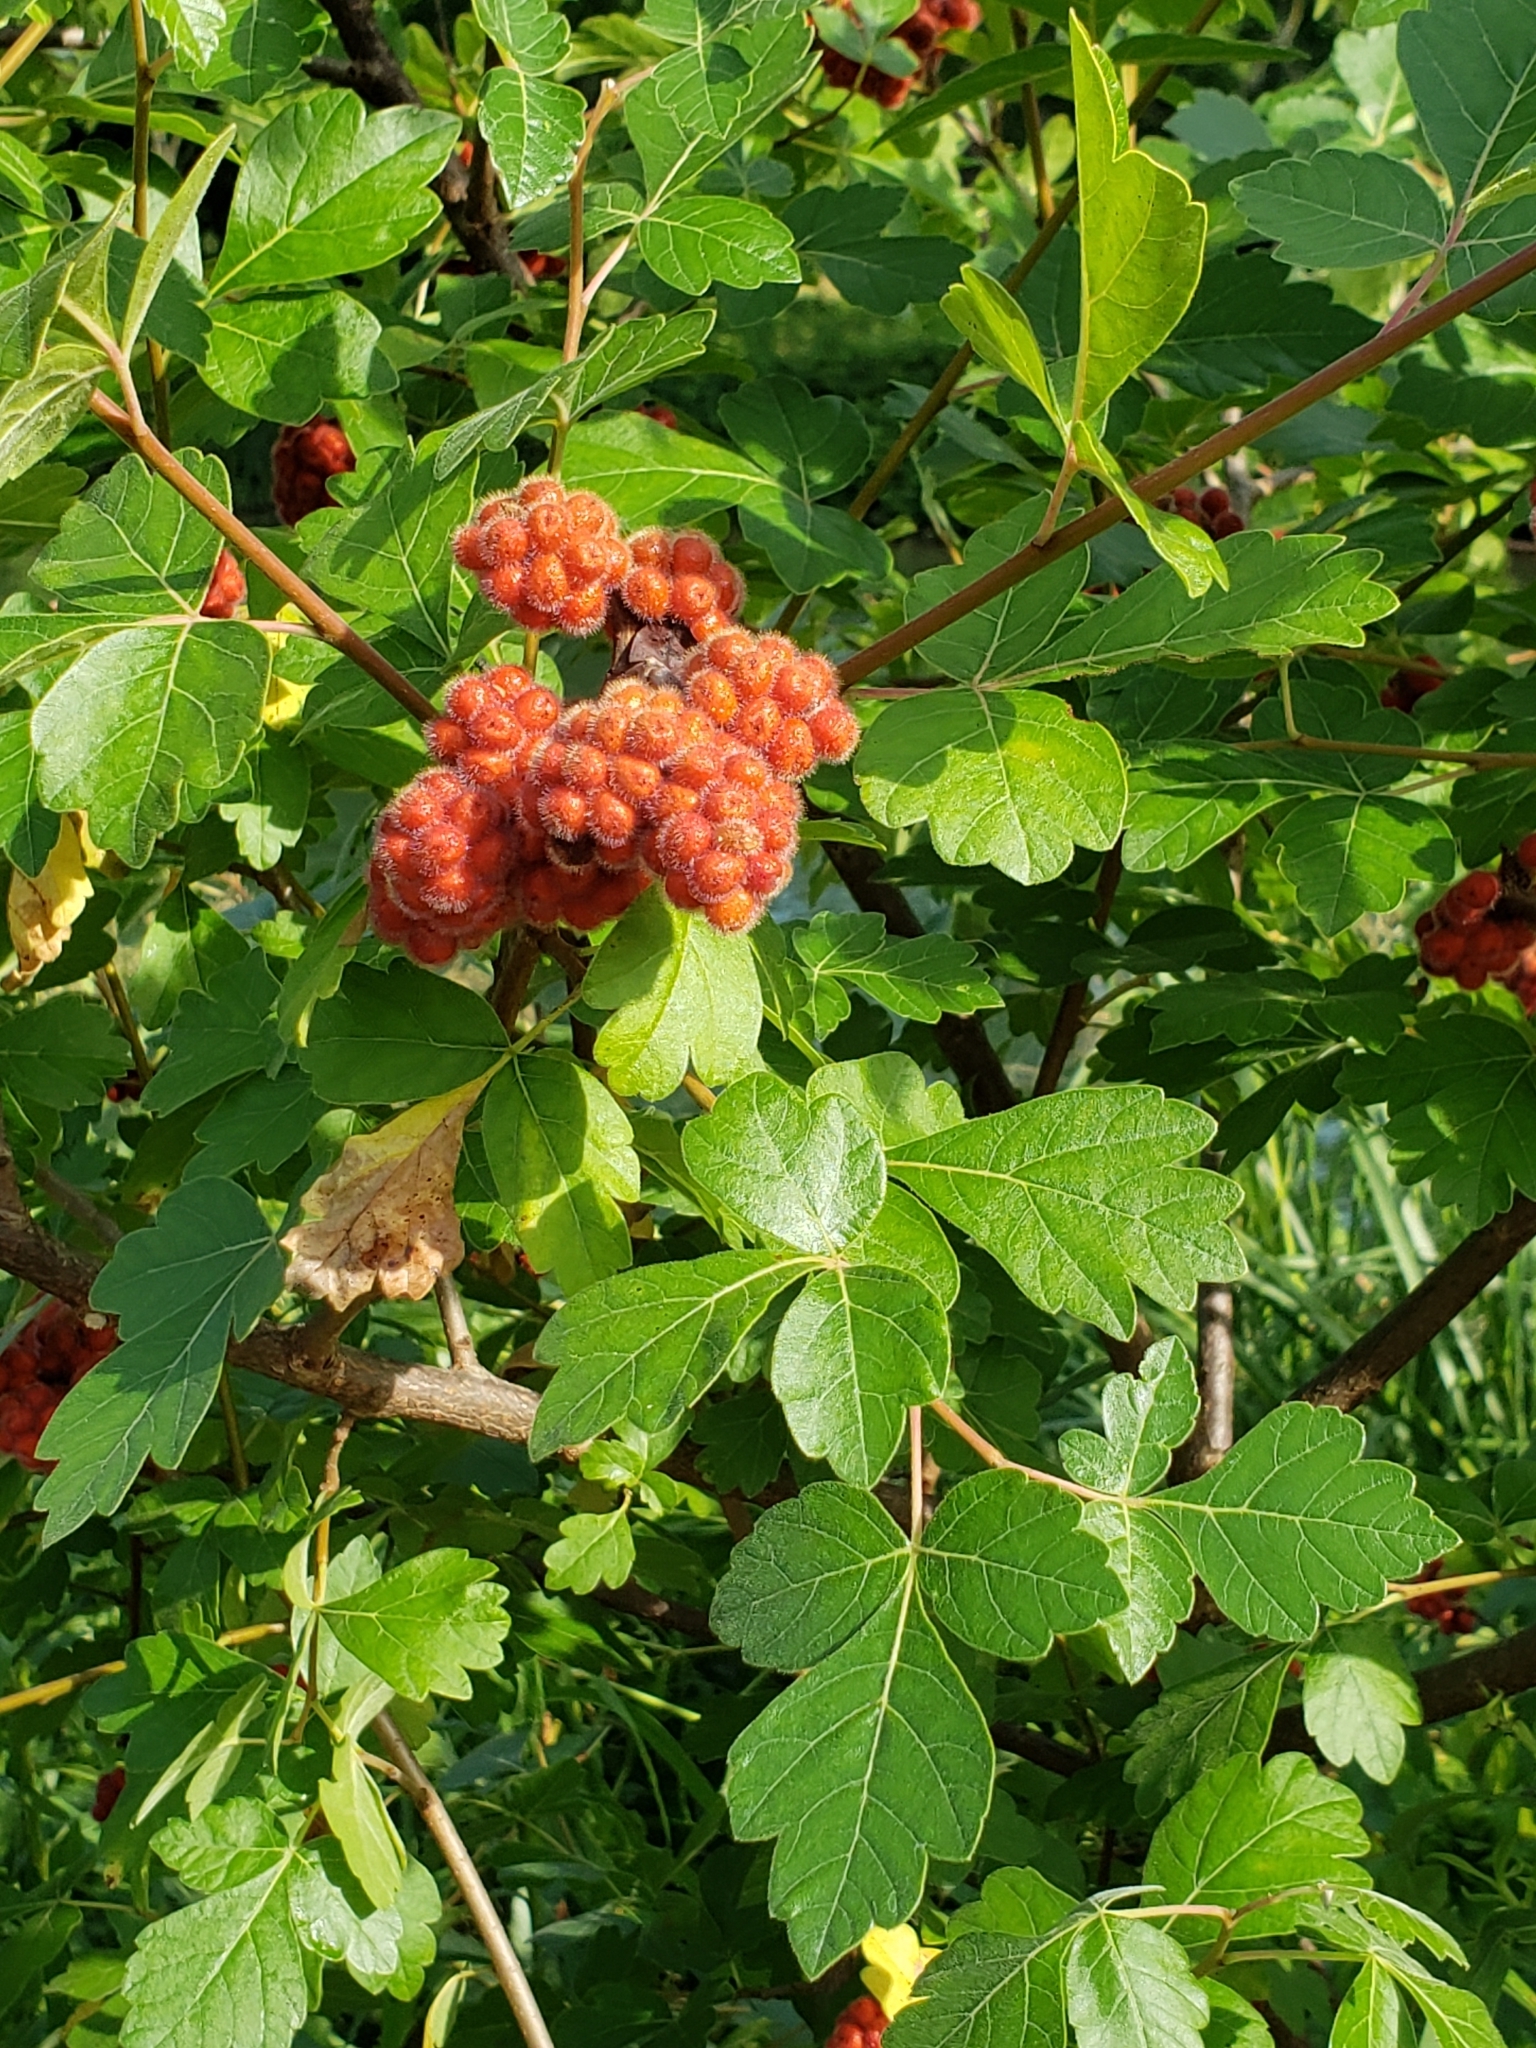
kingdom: Plantae
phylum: Tracheophyta
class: Magnoliopsida
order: Sapindales
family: Anacardiaceae
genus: Rhus
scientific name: Rhus aromatica
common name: Aromatic sumac
